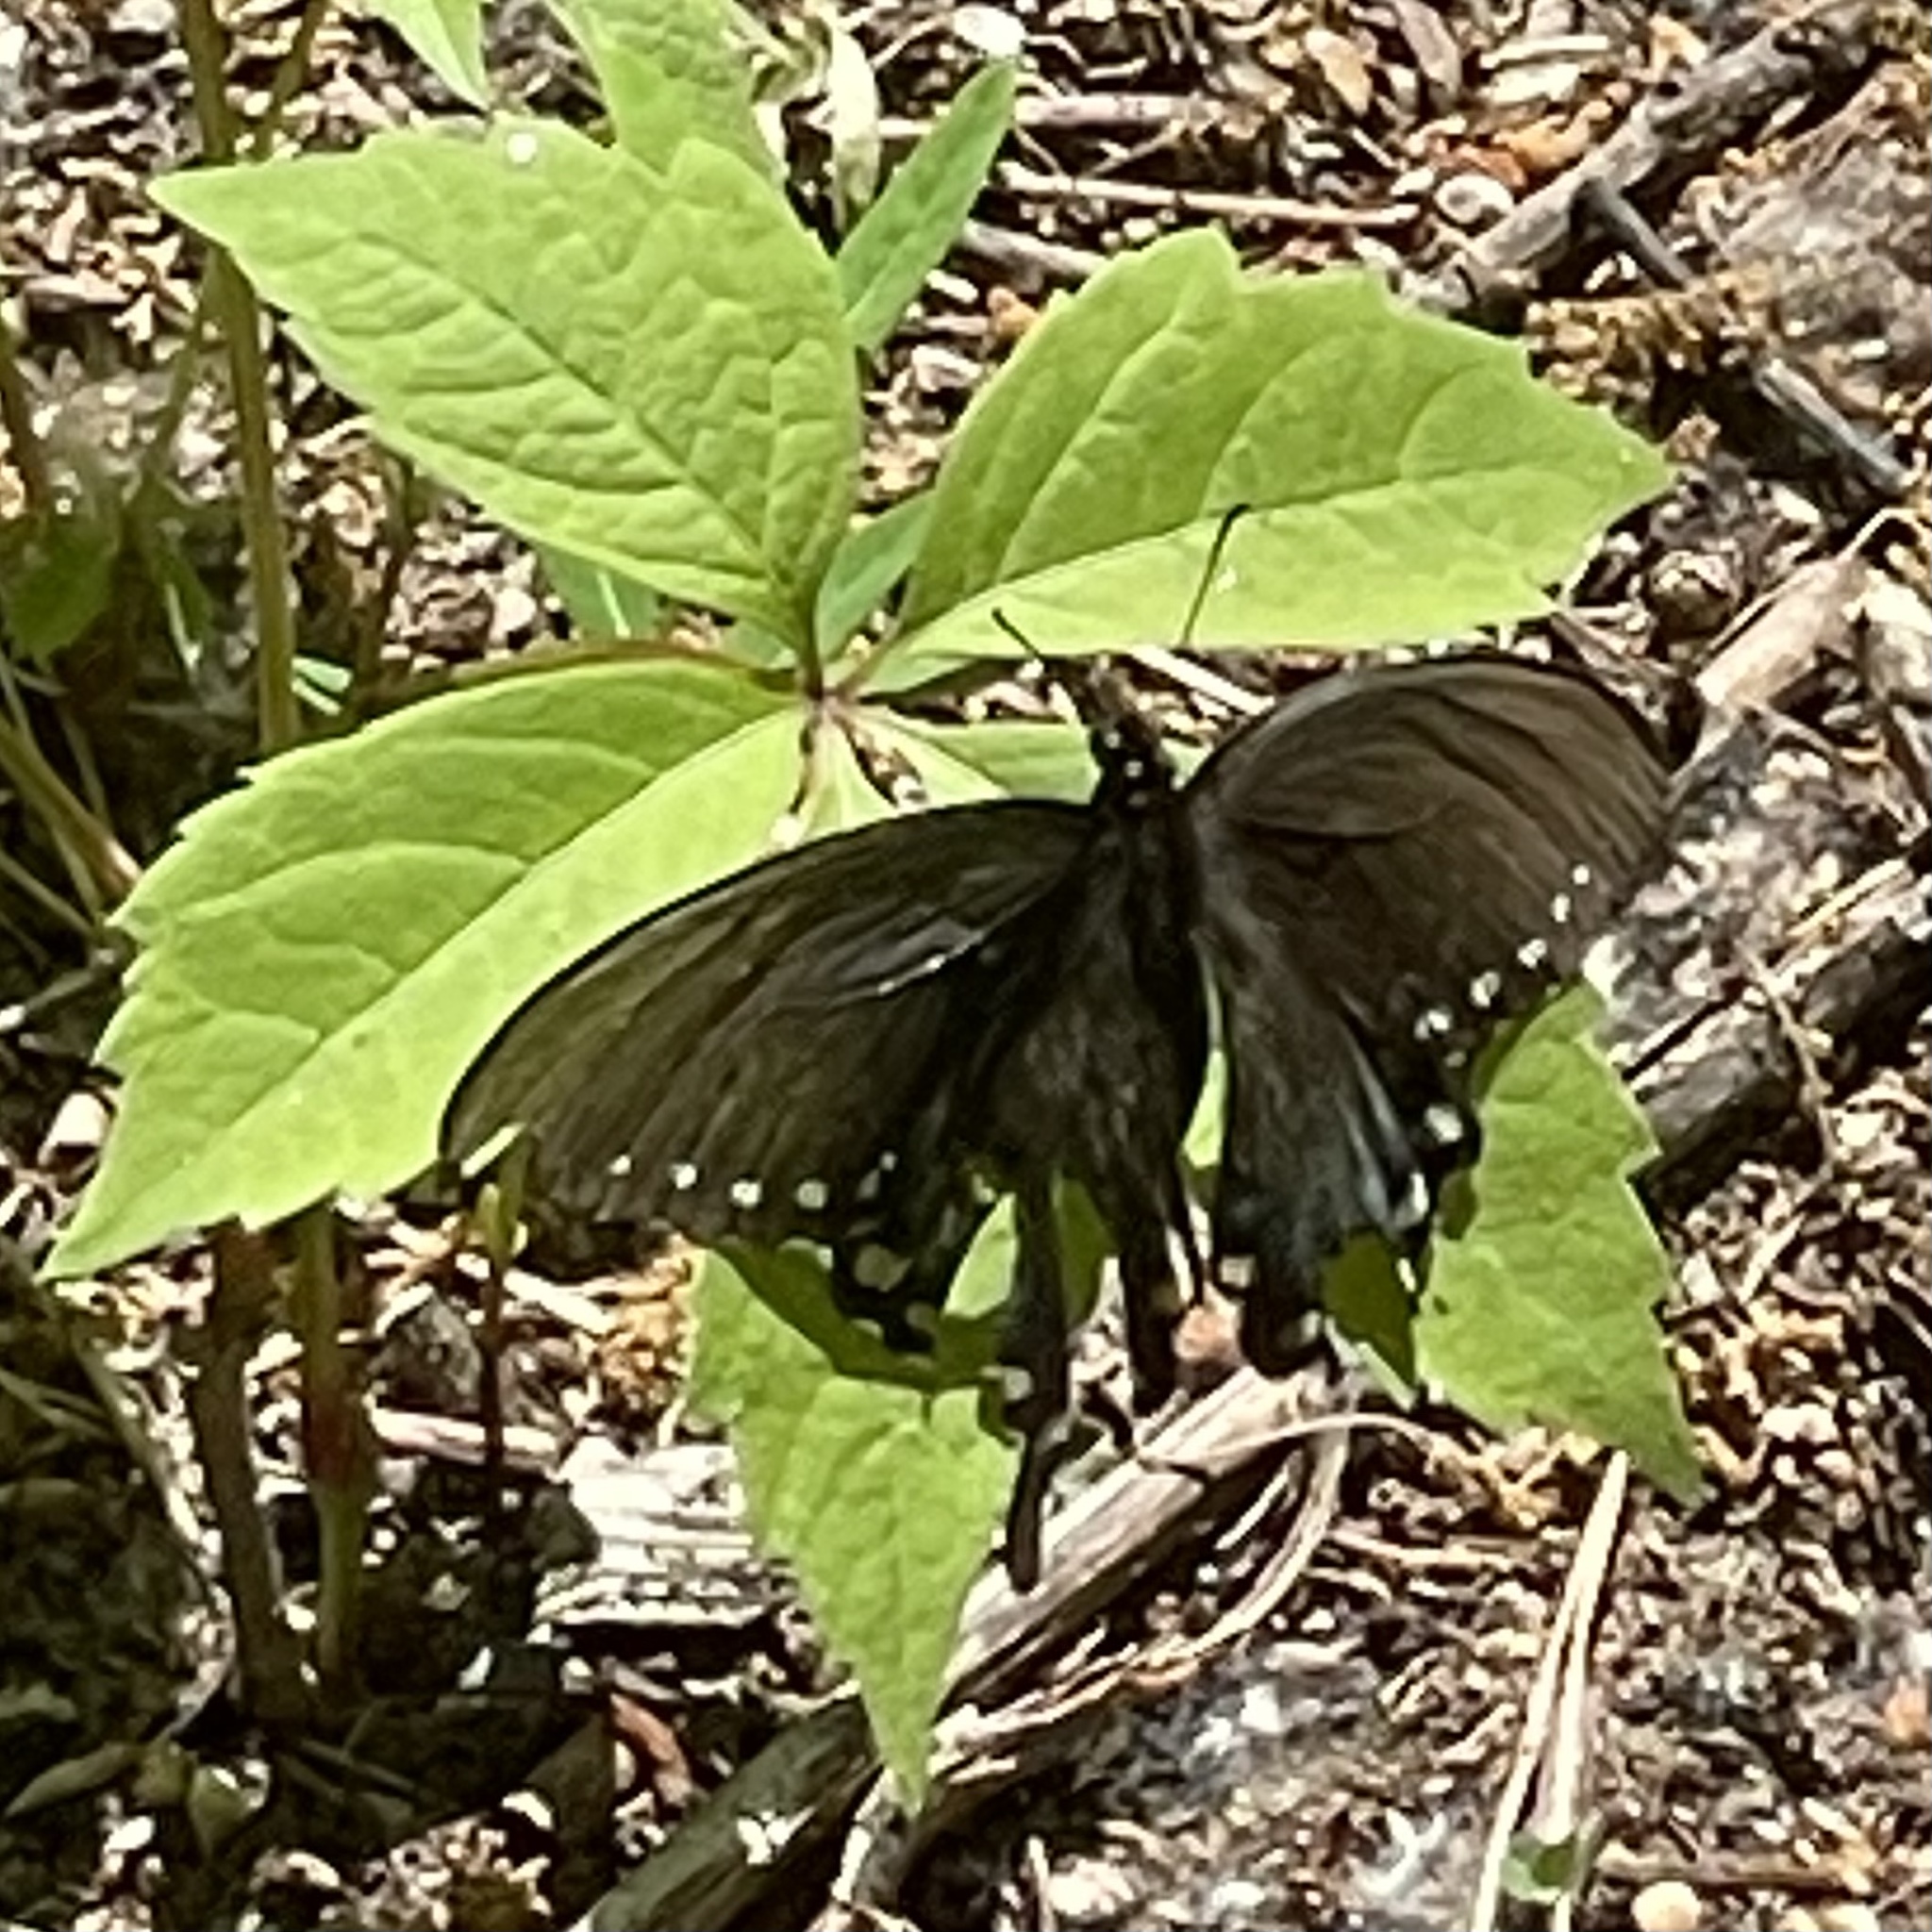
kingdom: Animalia
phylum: Arthropoda
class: Insecta
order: Lepidoptera
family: Papilionidae
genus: Papilio
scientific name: Papilio troilus
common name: Spicebush swallowtail
